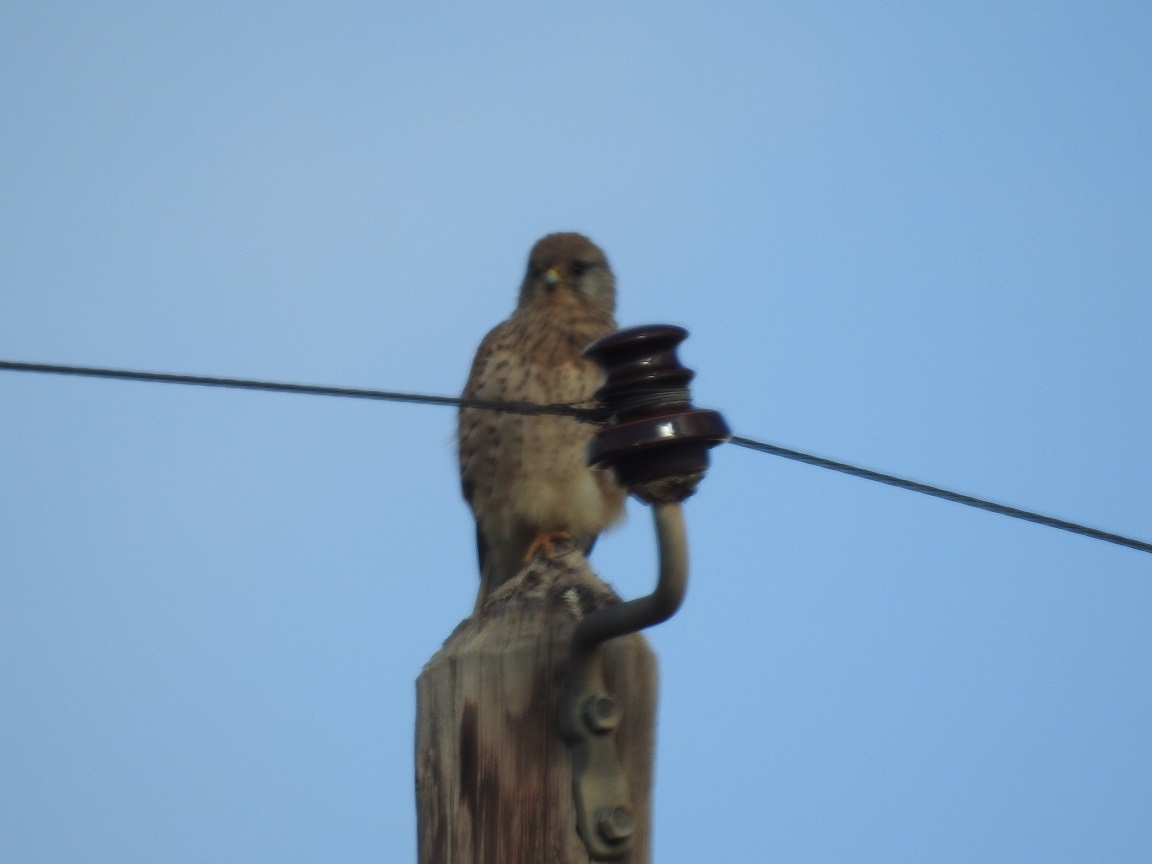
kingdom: Animalia
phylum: Chordata
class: Aves
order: Falconiformes
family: Falconidae
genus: Falco
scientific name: Falco tinnunculus
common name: Common kestrel
